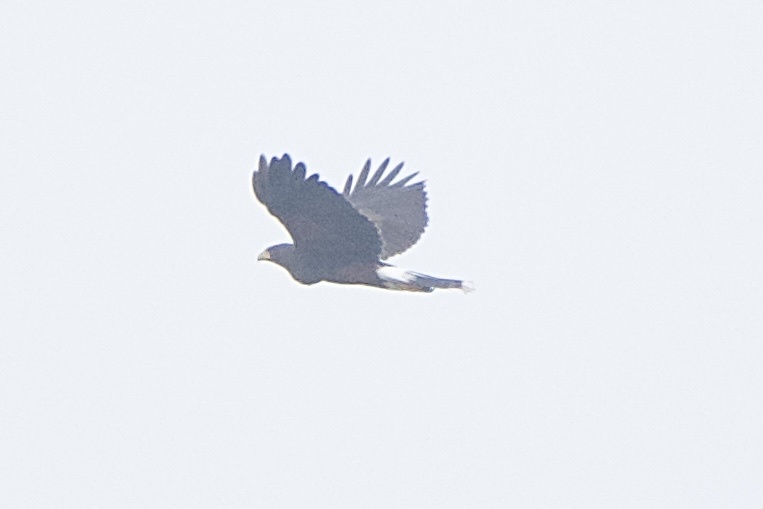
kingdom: Animalia
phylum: Chordata
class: Aves
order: Accipitriformes
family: Accipitridae
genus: Parabuteo
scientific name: Parabuteo unicinctus
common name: Harris's hawk
